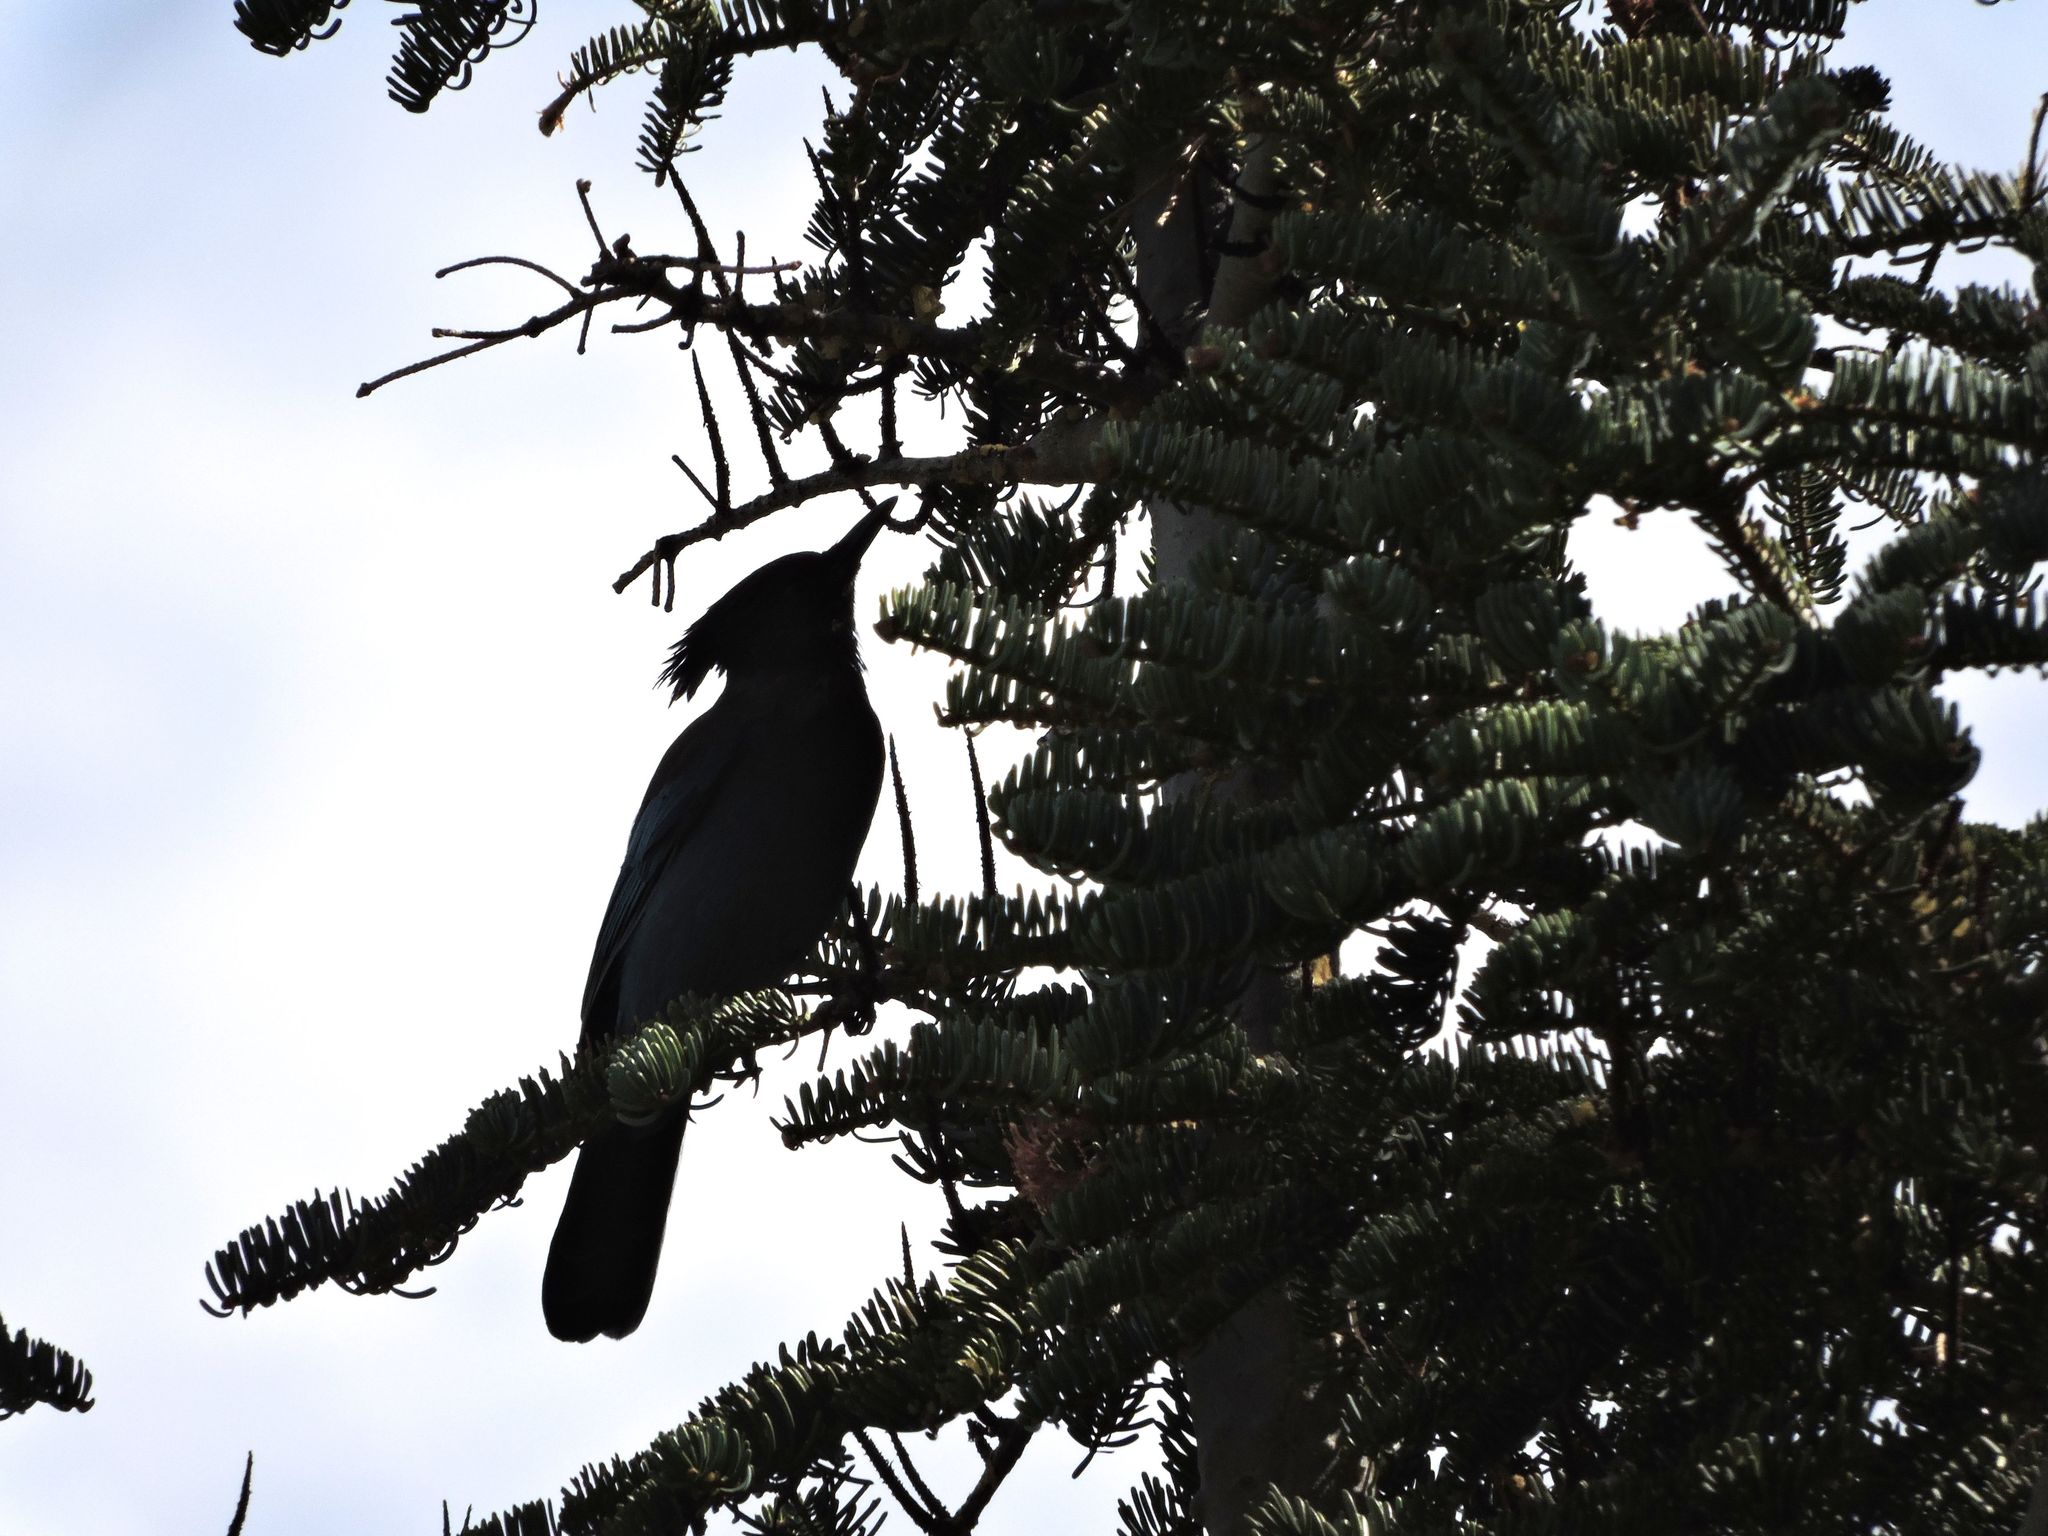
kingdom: Animalia
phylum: Chordata
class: Aves
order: Passeriformes
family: Corvidae
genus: Cyanocitta
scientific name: Cyanocitta stelleri
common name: Steller's jay
